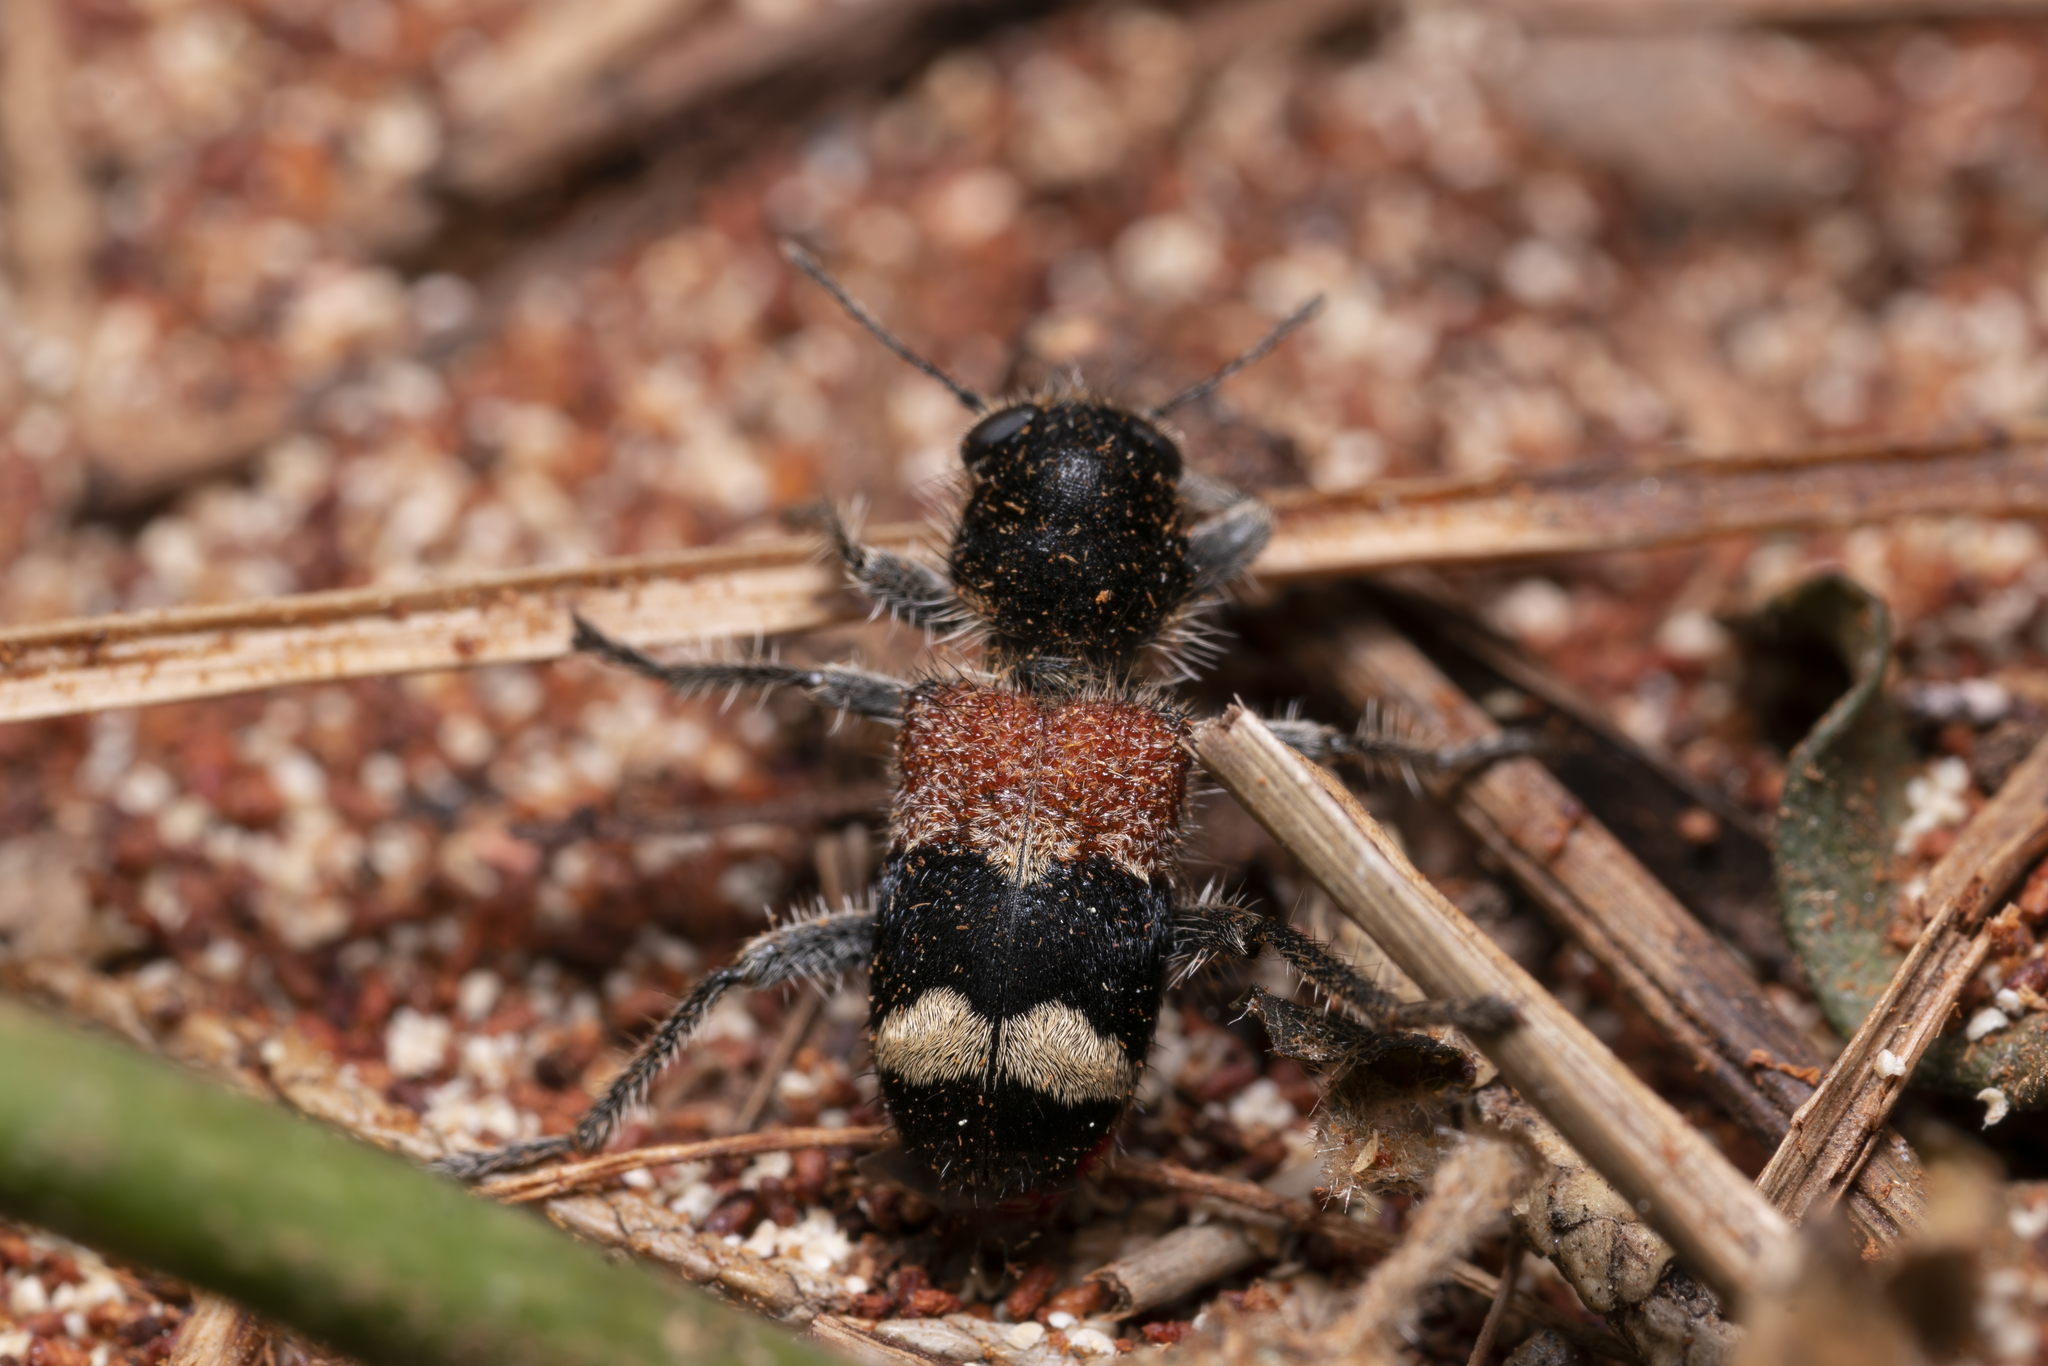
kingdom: Animalia
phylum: Arthropoda
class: Insecta
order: Coleoptera
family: Cleridae
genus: Clerus
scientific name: Clerus mutillaroides
